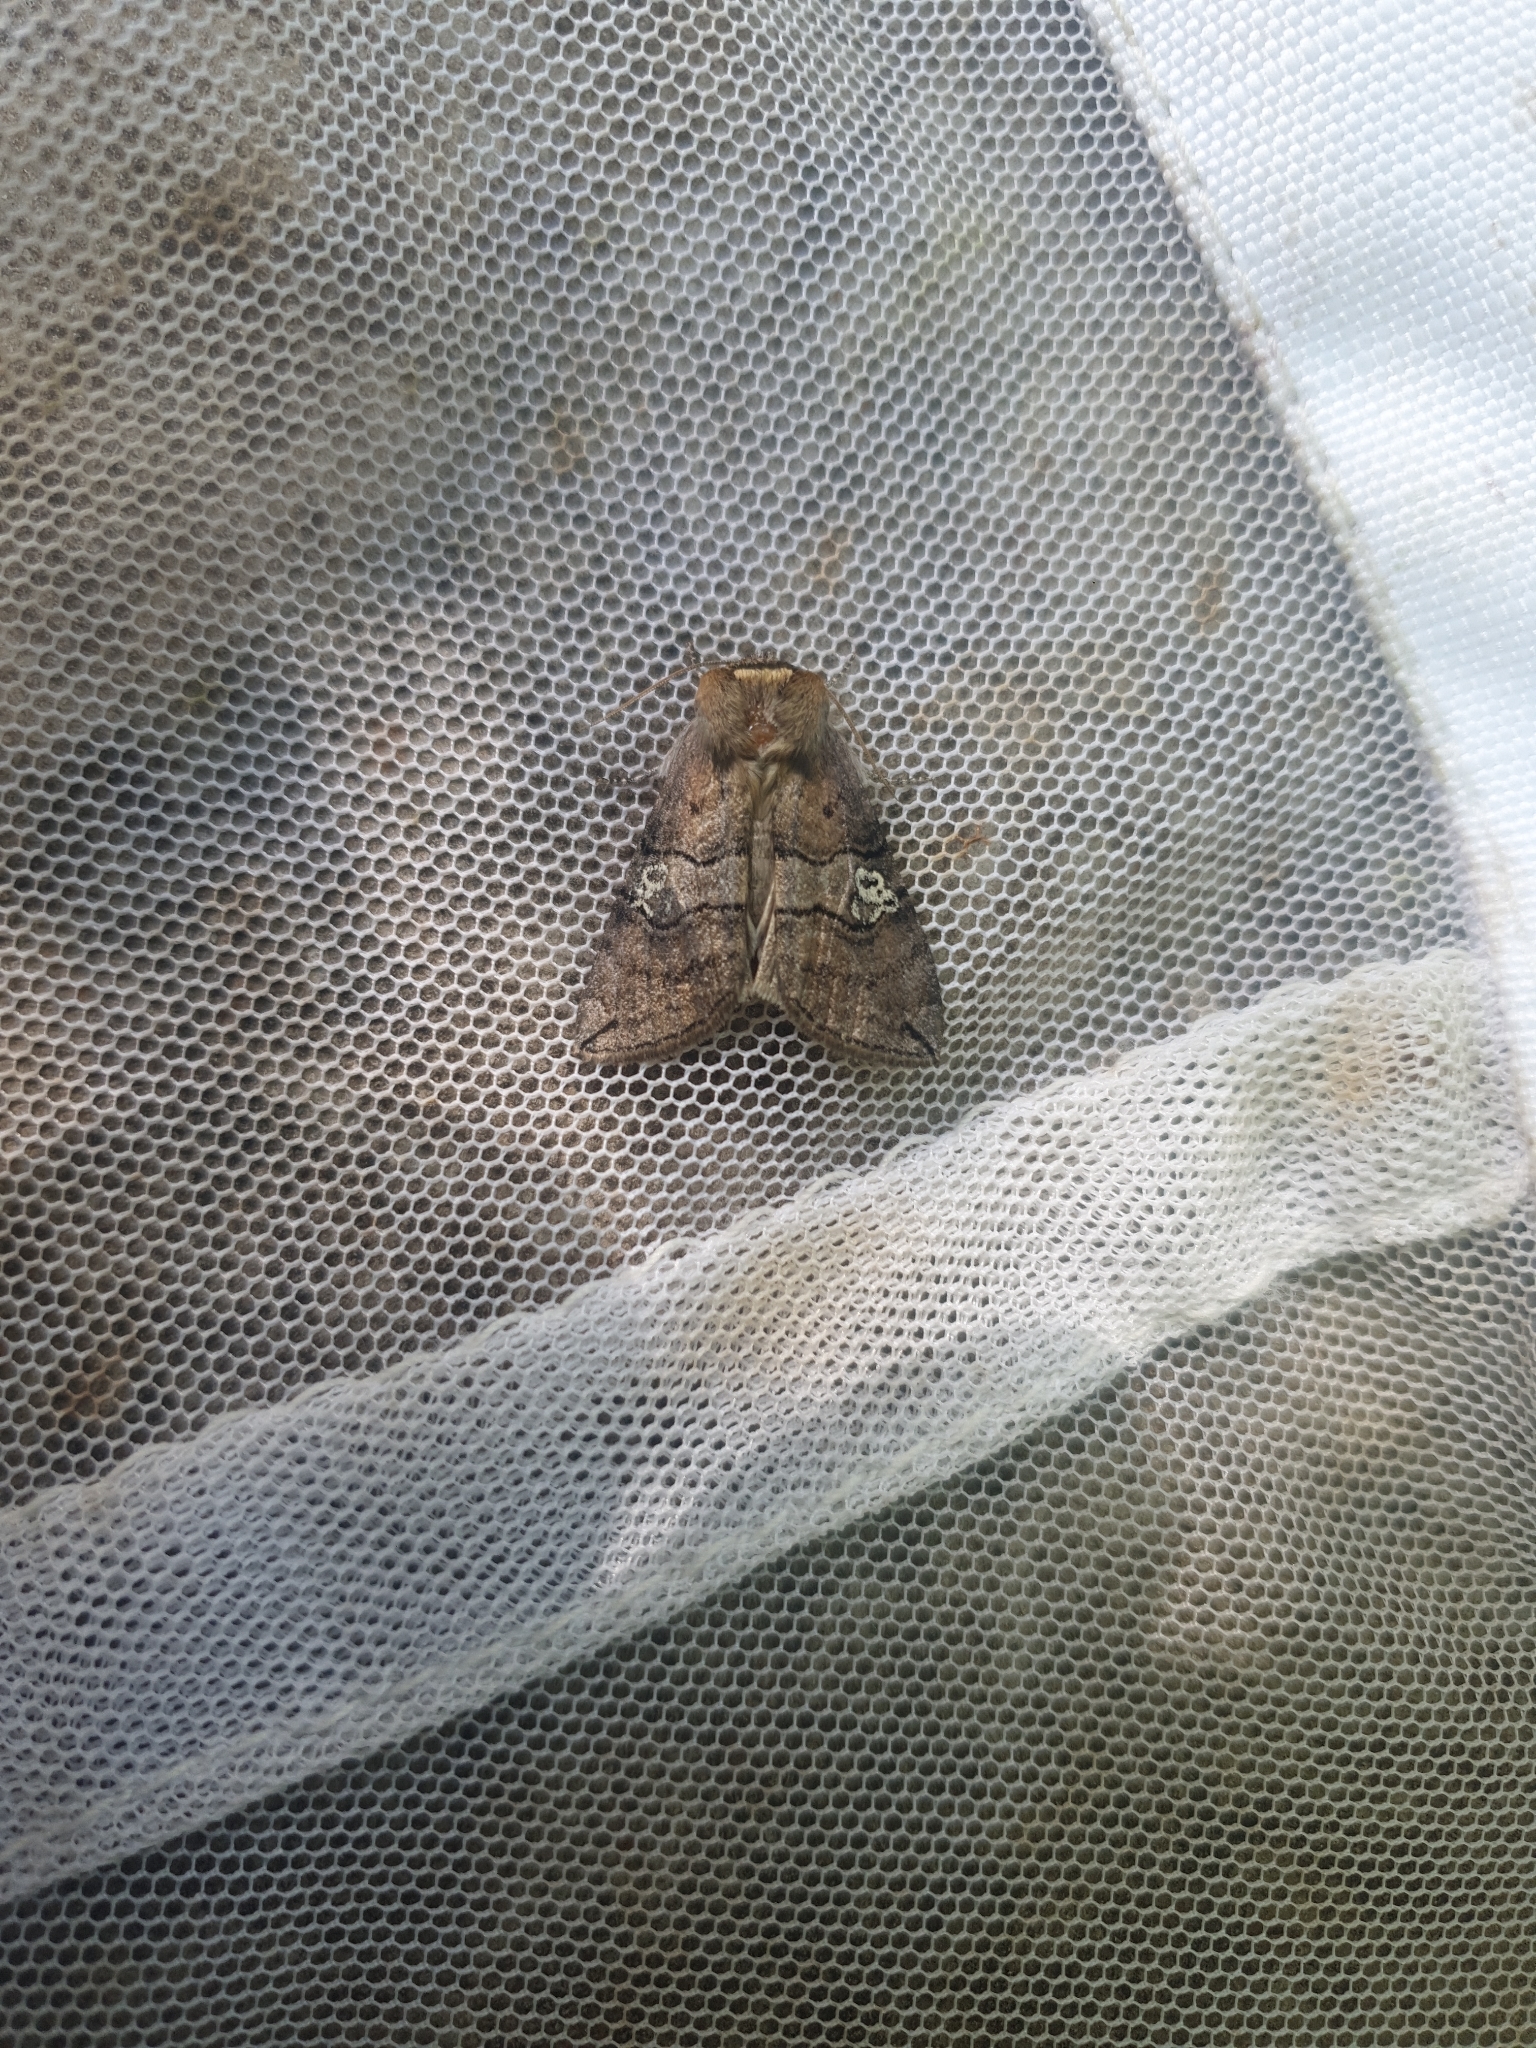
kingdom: Animalia
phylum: Arthropoda
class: Insecta
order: Lepidoptera
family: Drepanidae
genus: Tethea
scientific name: Tethea ocularis
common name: Figure of eighty
